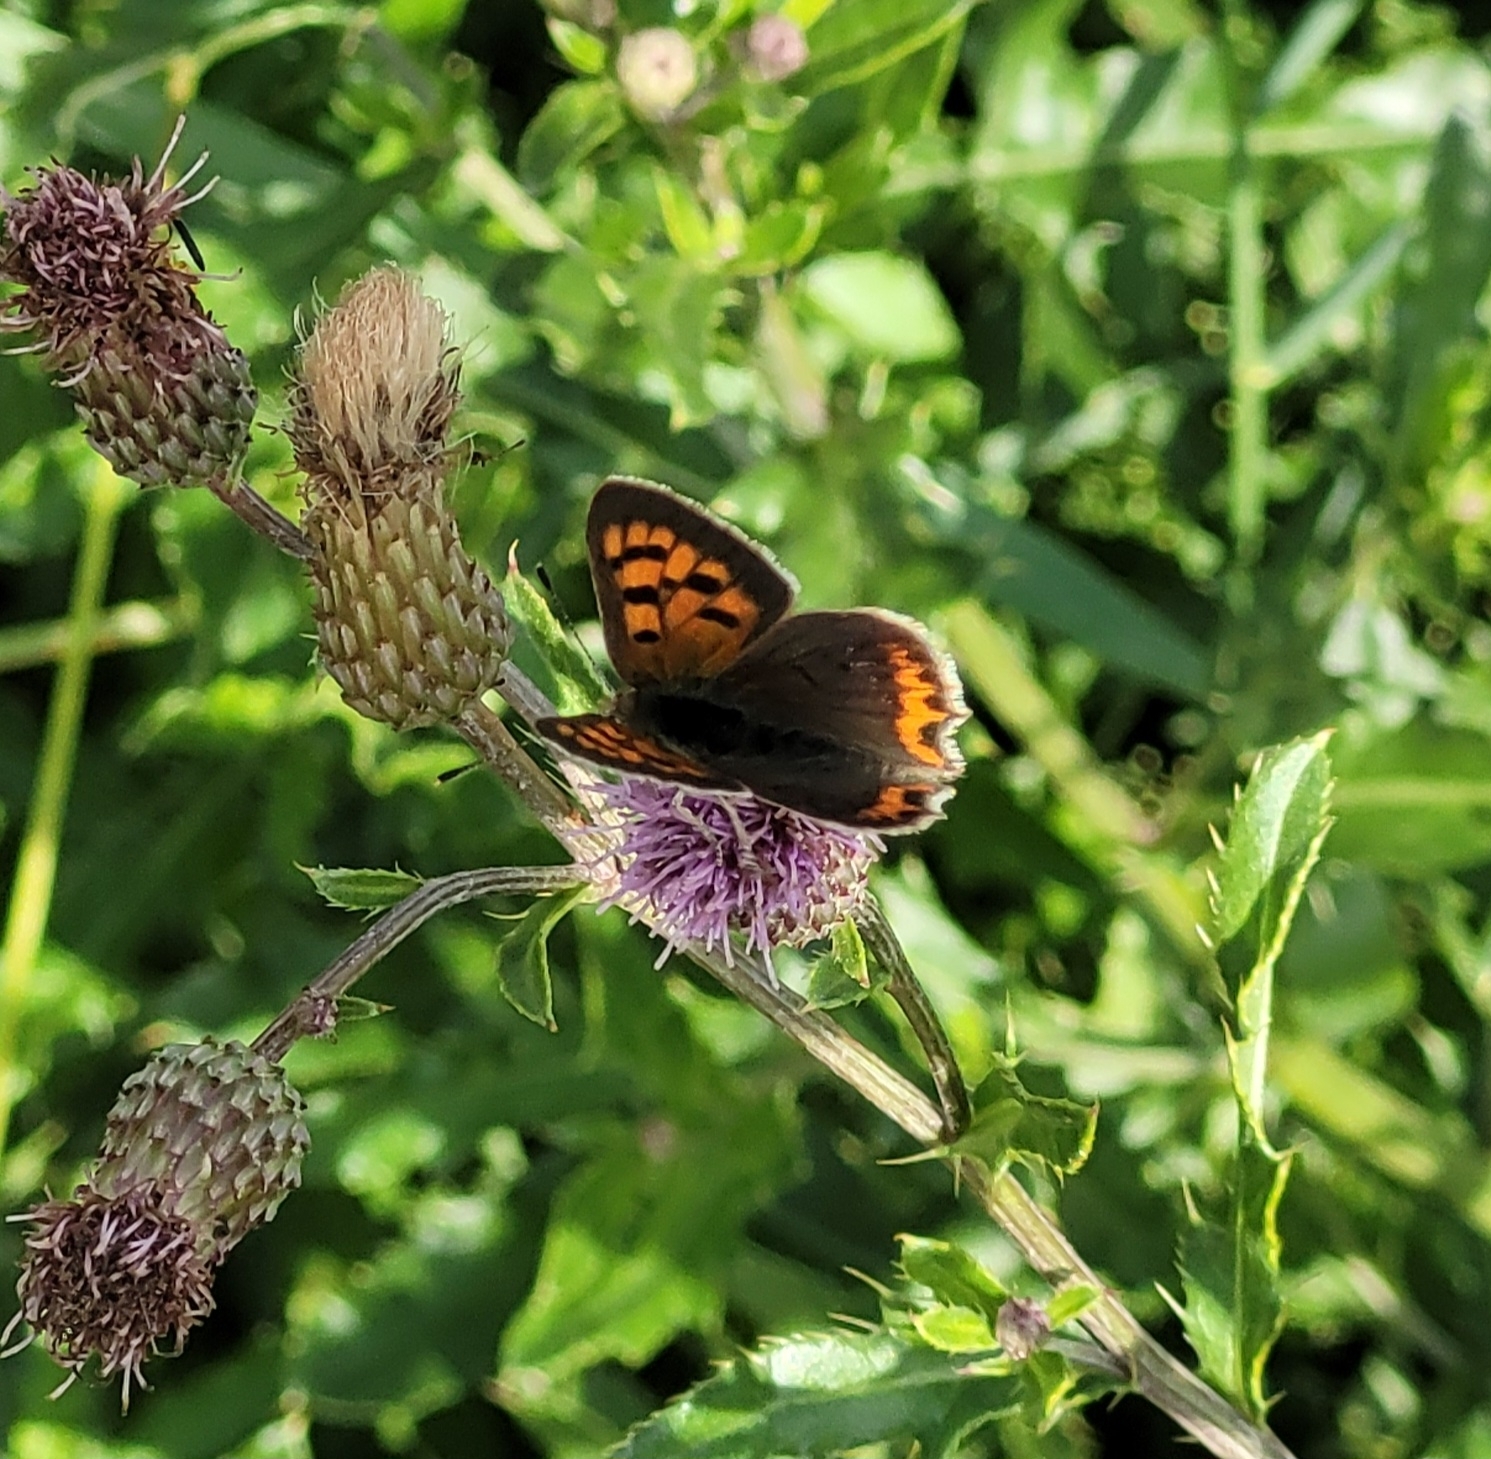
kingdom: Animalia
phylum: Arthropoda
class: Insecta
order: Lepidoptera
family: Lycaenidae
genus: Lycaena
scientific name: Lycaena phlaeas
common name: Small copper
